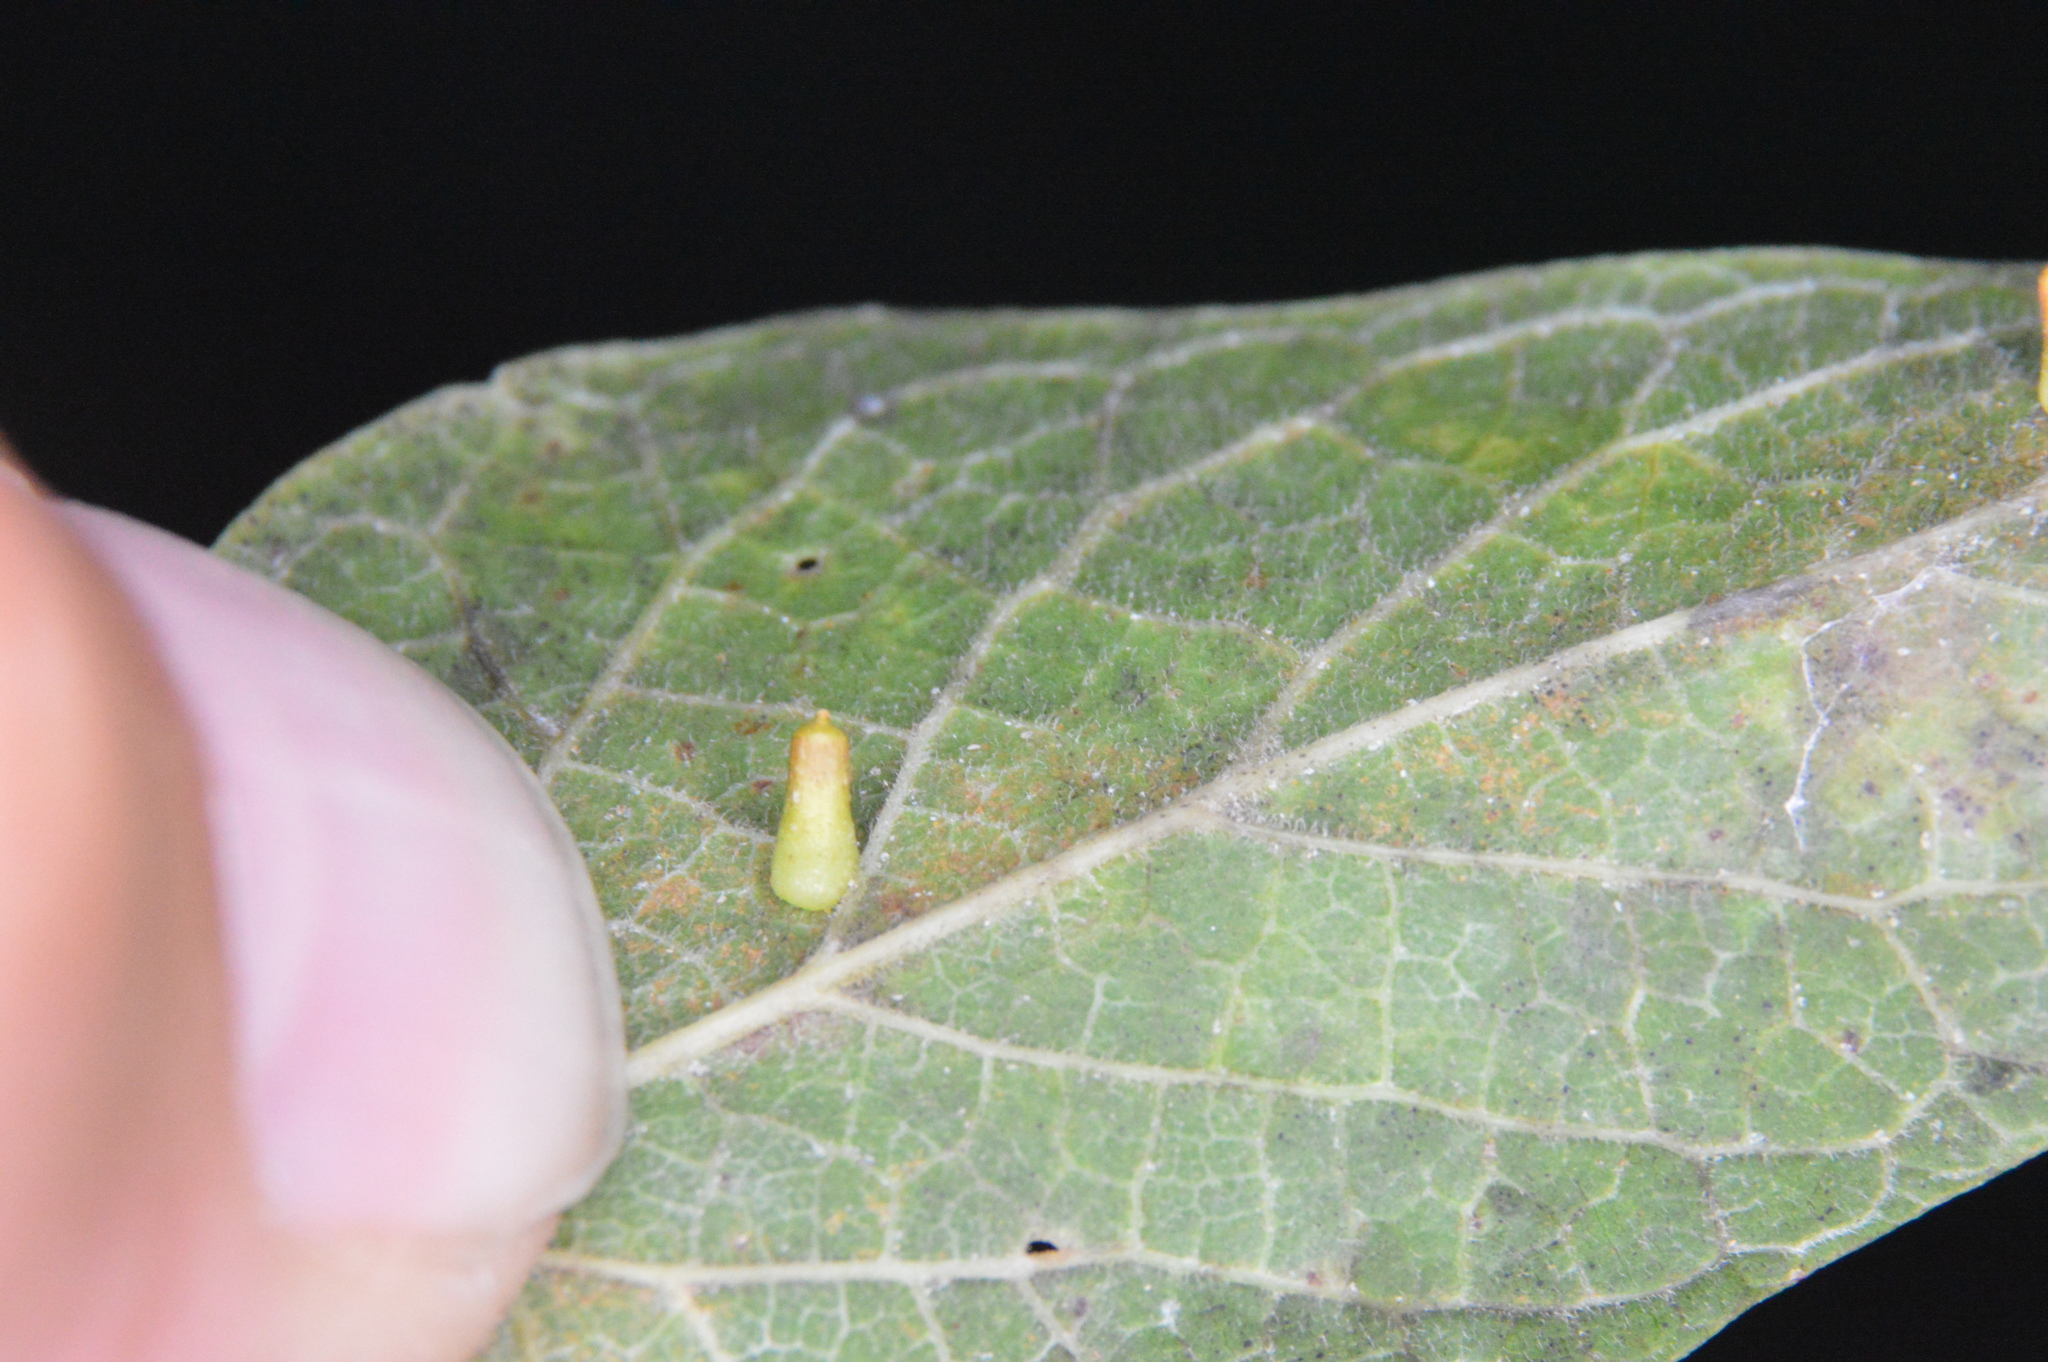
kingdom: Animalia
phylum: Arthropoda
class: Insecta
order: Diptera
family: Cecidomyiidae
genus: Celticecis
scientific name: Celticecis aciculata
